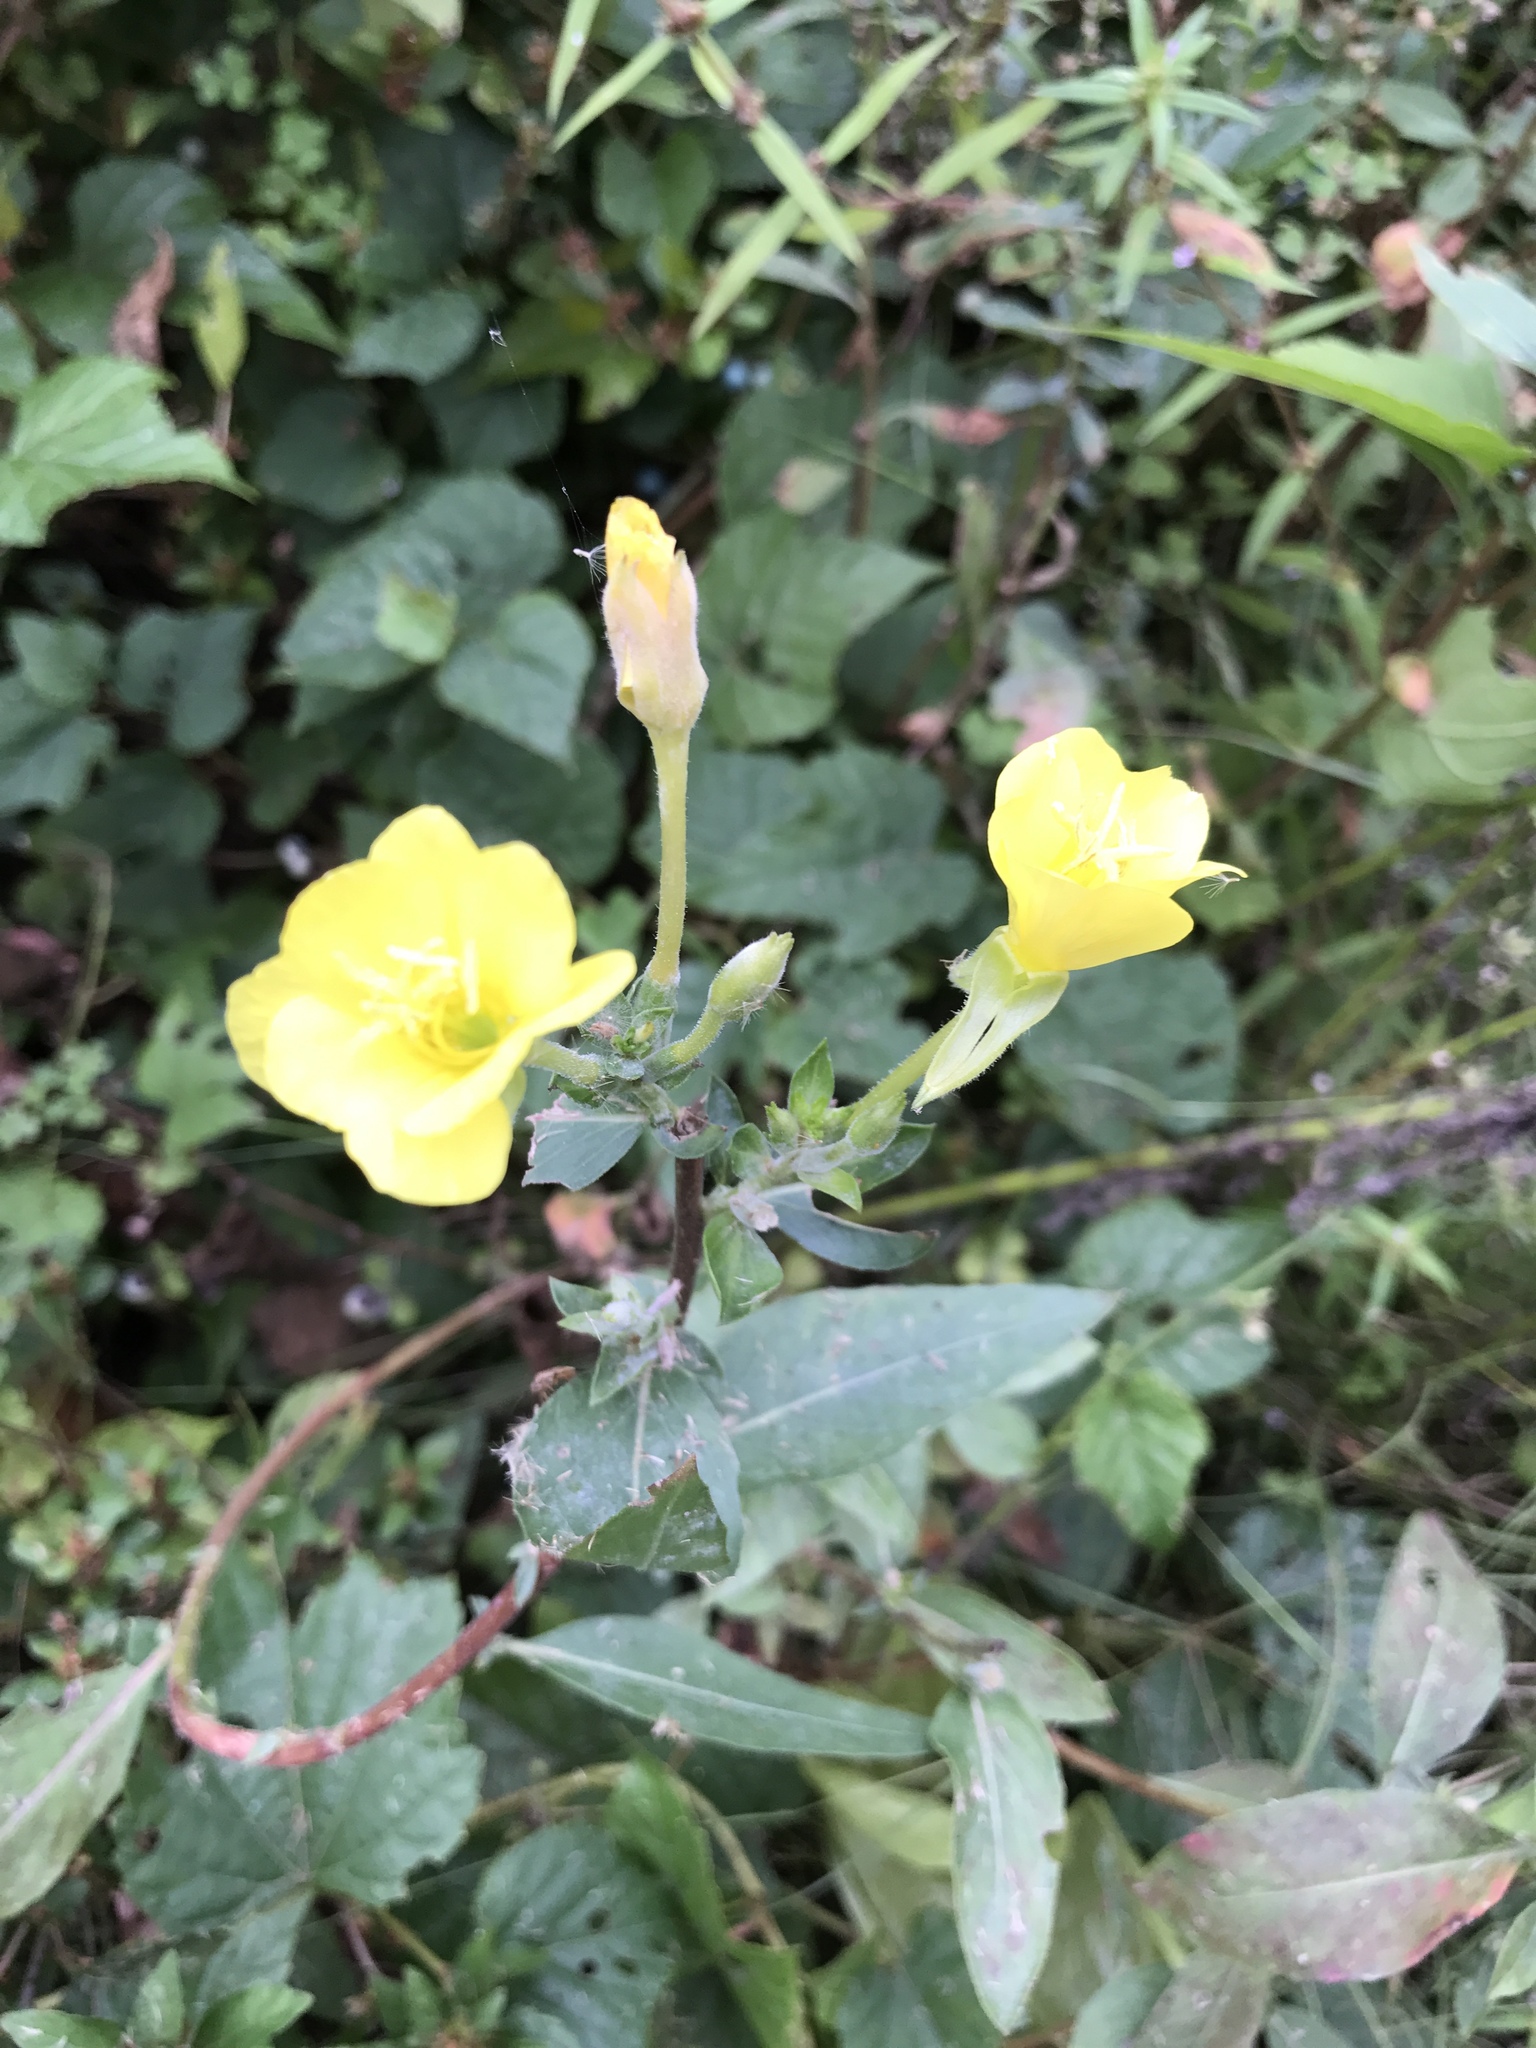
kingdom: Plantae
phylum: Tracheophyta
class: Magnoliopsida
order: Myrtales
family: Onagraceae
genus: Oenothera
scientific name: Oenothera biennis
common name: Common evening-primrose
